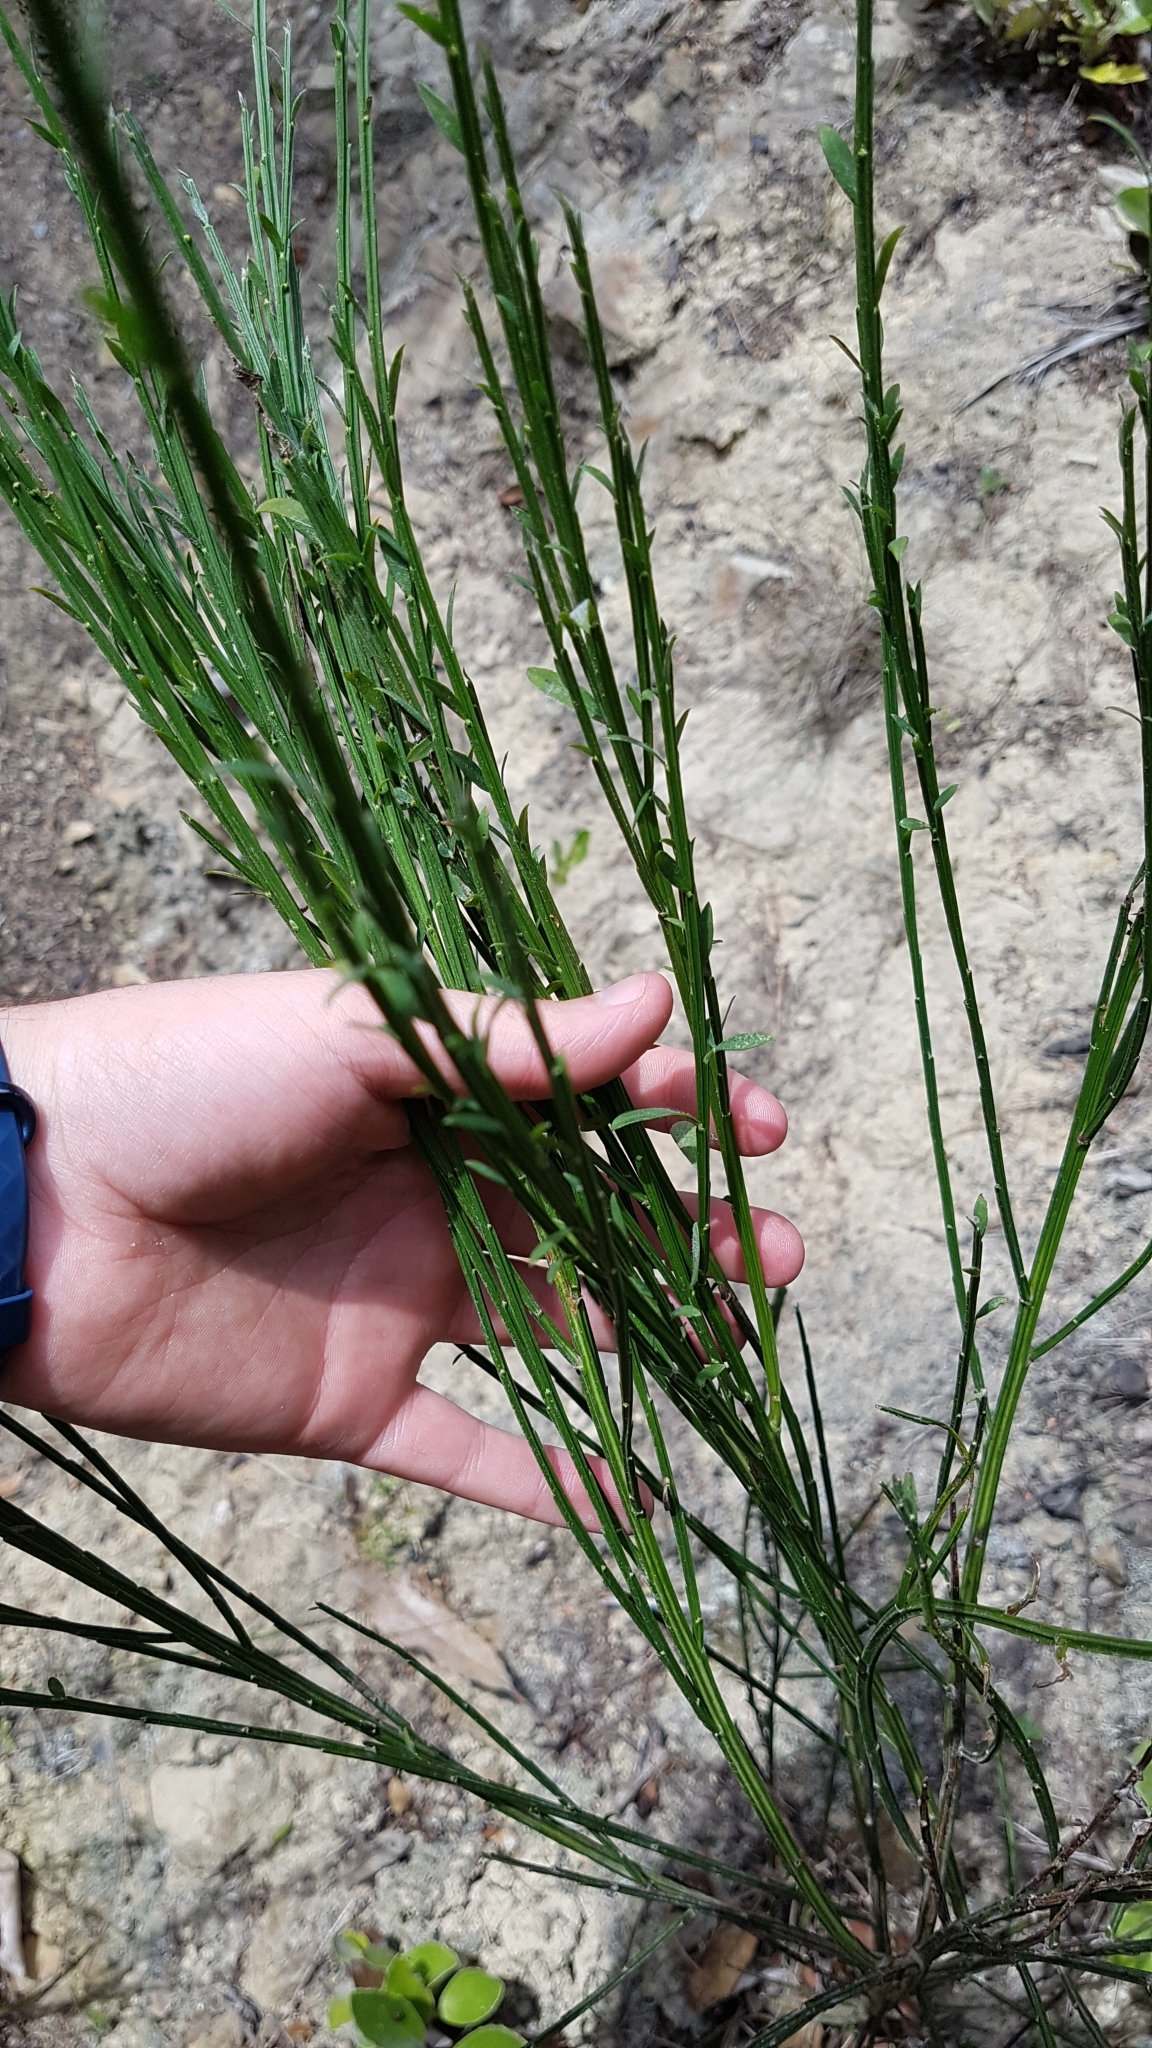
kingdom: Plantae
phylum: Tracheophyta
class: Magnoliopsida
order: Fabales
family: Fabaceae
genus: Cytisus
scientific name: Cytisus scoparius
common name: Scotch broom
